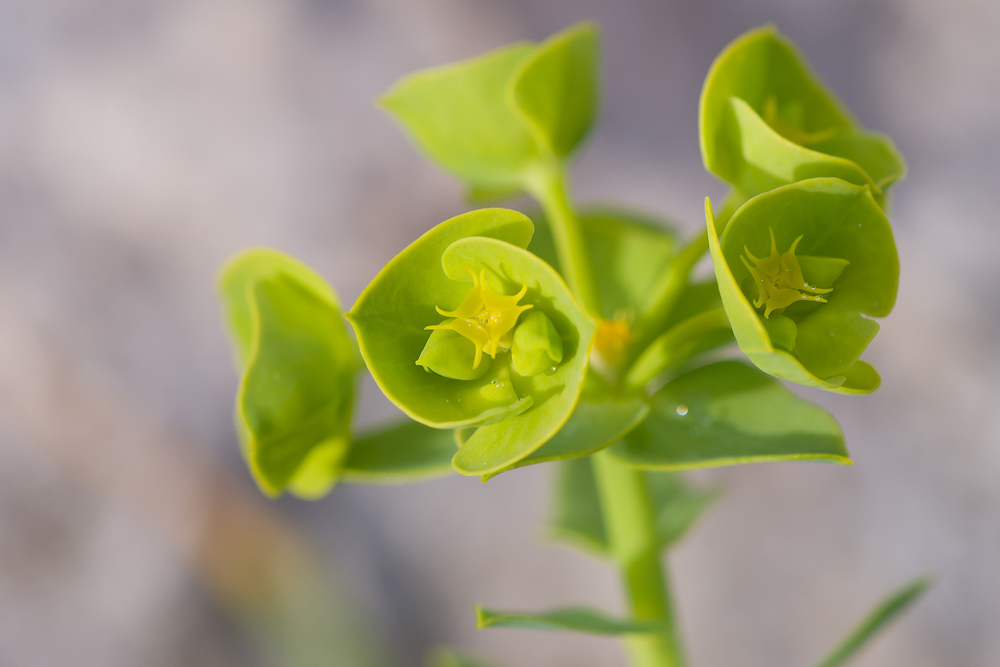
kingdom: Plantae
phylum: Tracheophyta
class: Magnoliopsida
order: Malpighiales
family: Euphorbiaceae
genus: Euphorbia
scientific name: Euphorbia segetalis
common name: Corn spurge
